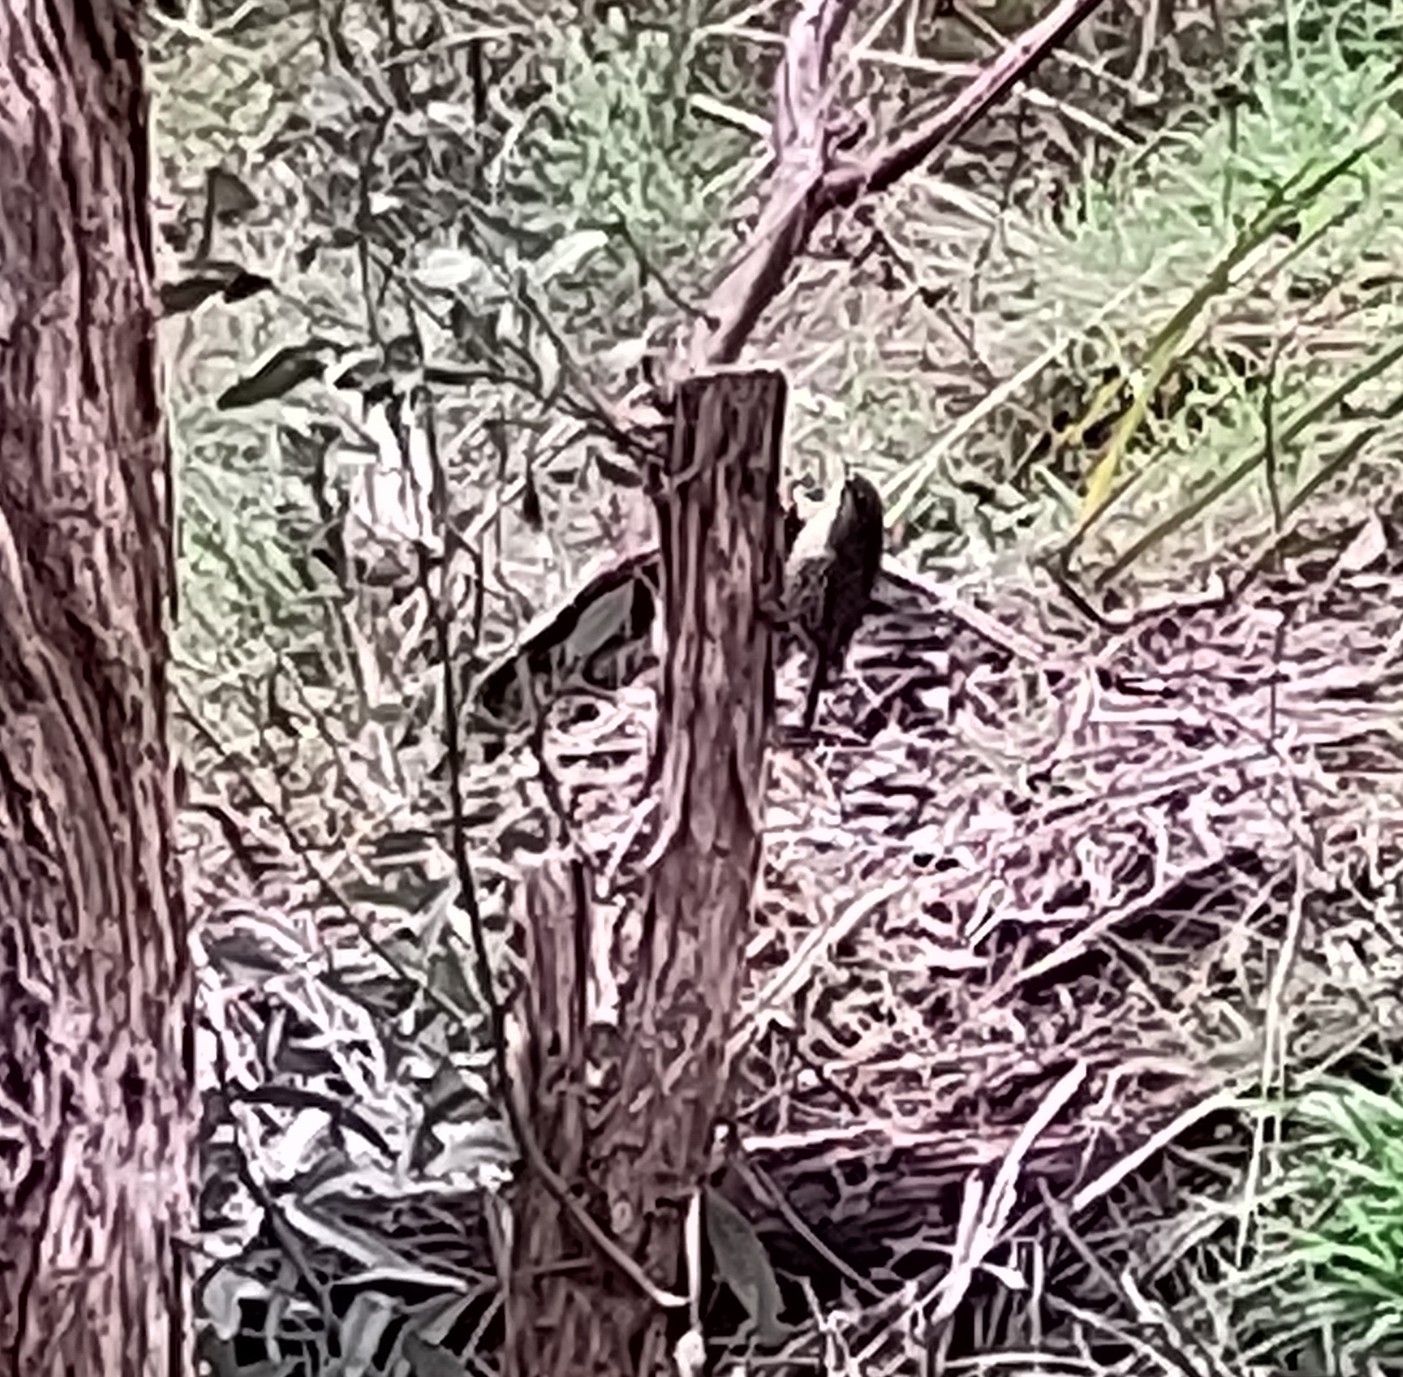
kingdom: Animalia
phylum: Chordata
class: Aves
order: Passeriformes
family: Climacteridae
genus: Cormobates
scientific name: Cormobates leucophaea
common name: White-throated treecreeper
